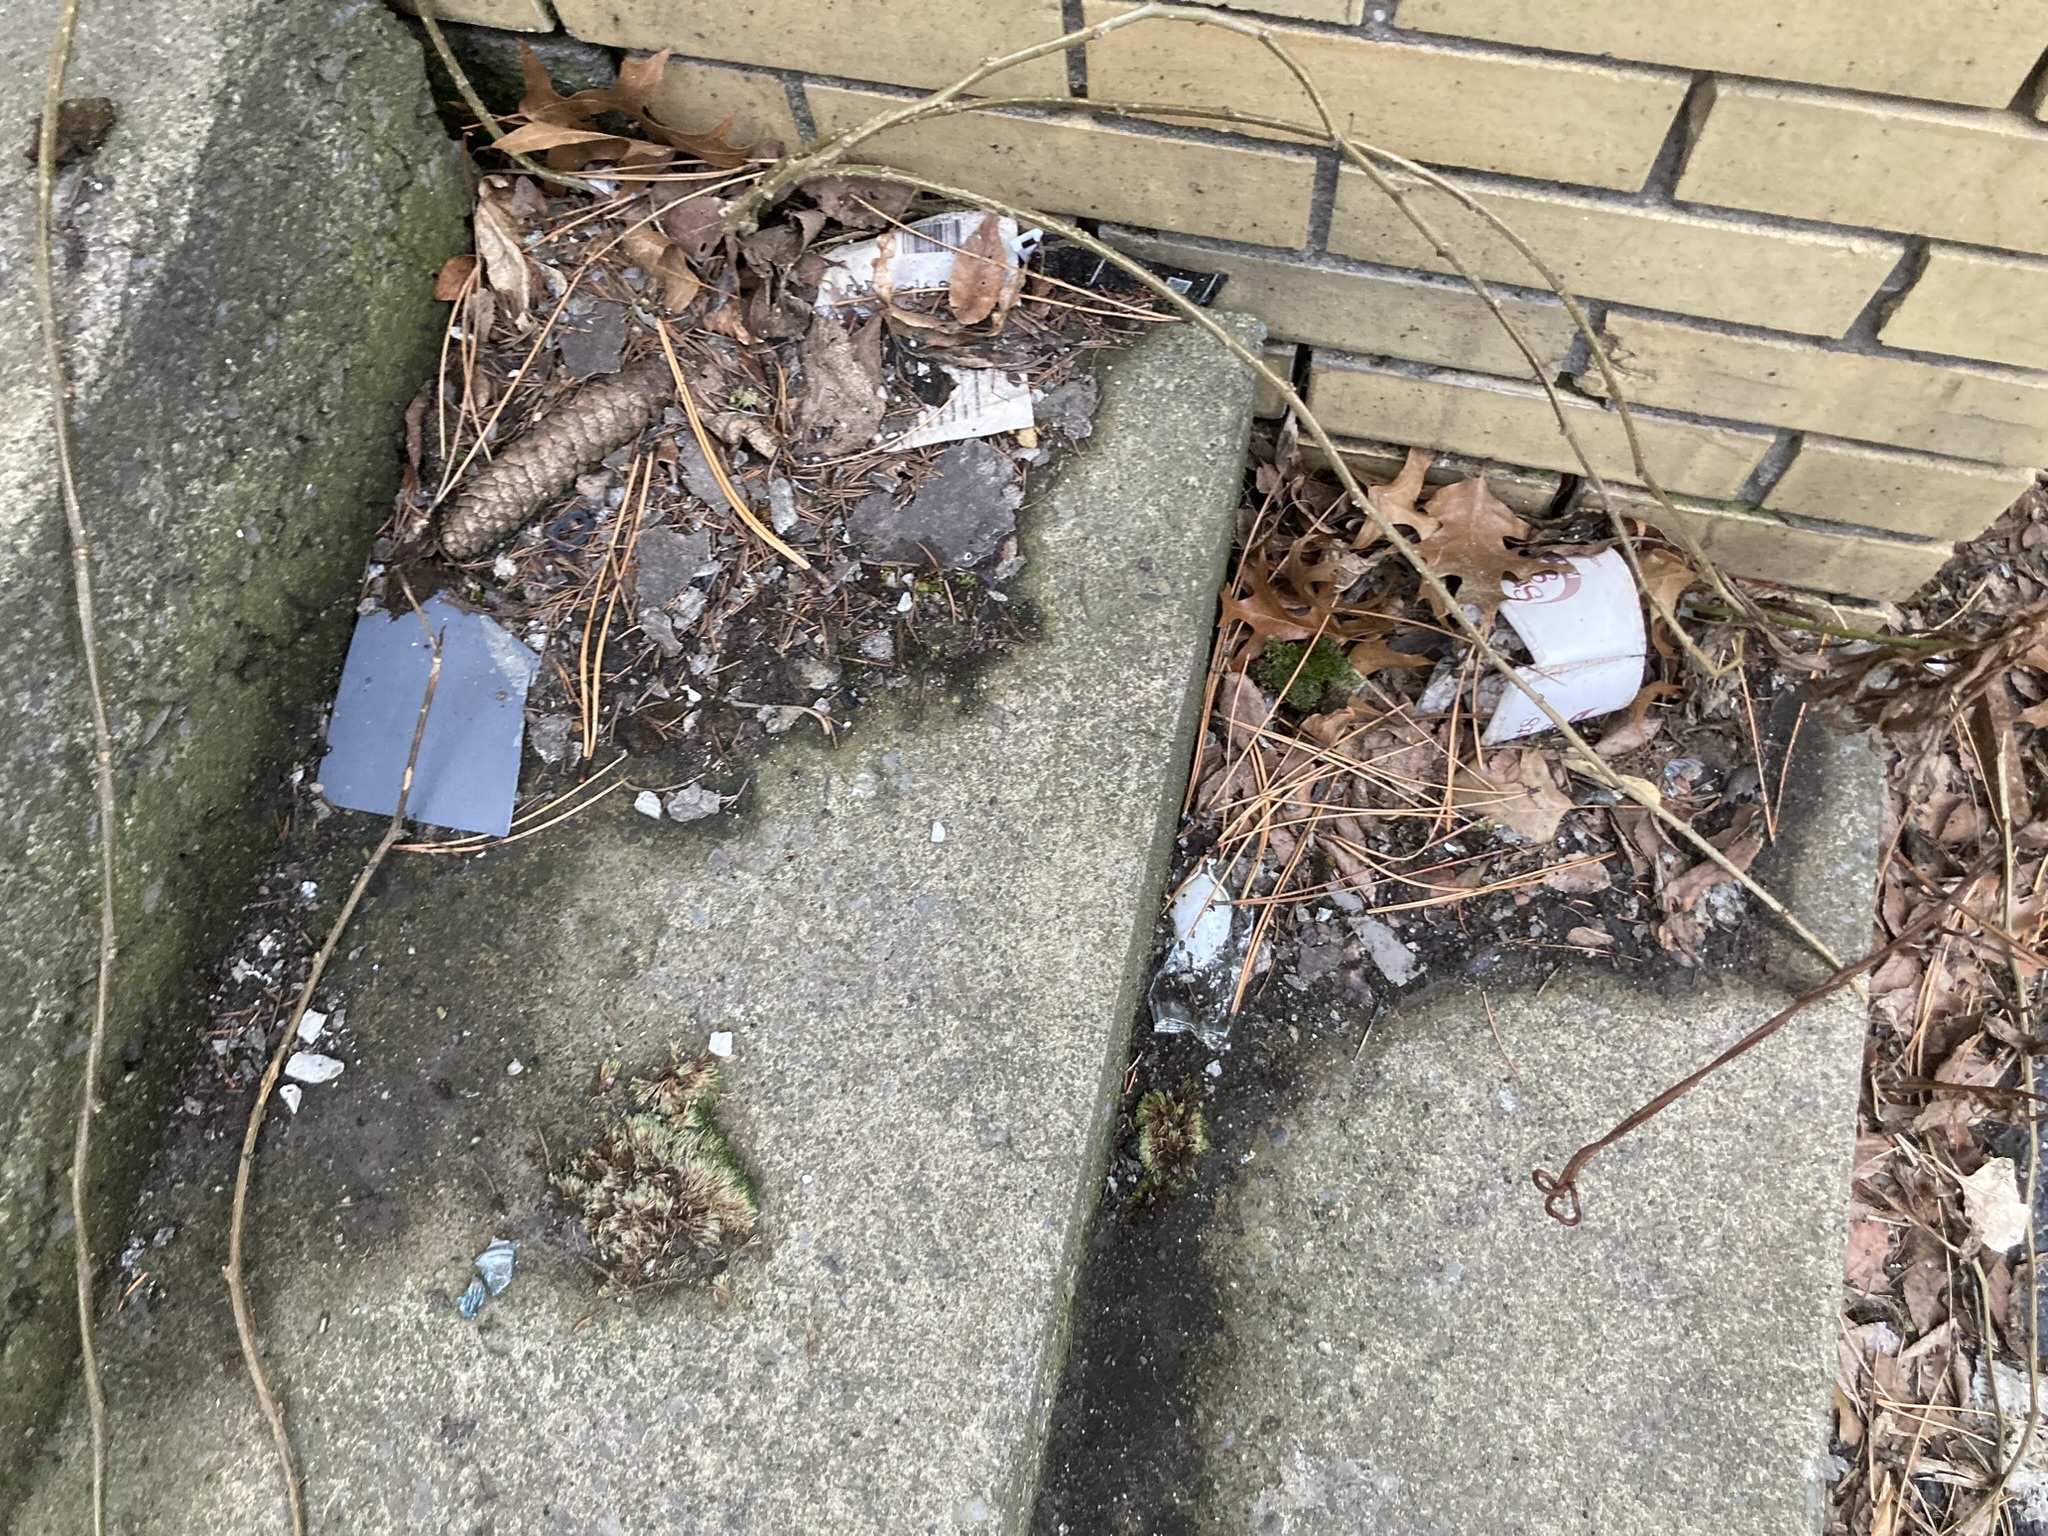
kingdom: Plantae
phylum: Tracheophyta
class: Pinopsida
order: Pinales
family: Pinaceae
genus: Picea
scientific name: Picea abies
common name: Norway spruce
